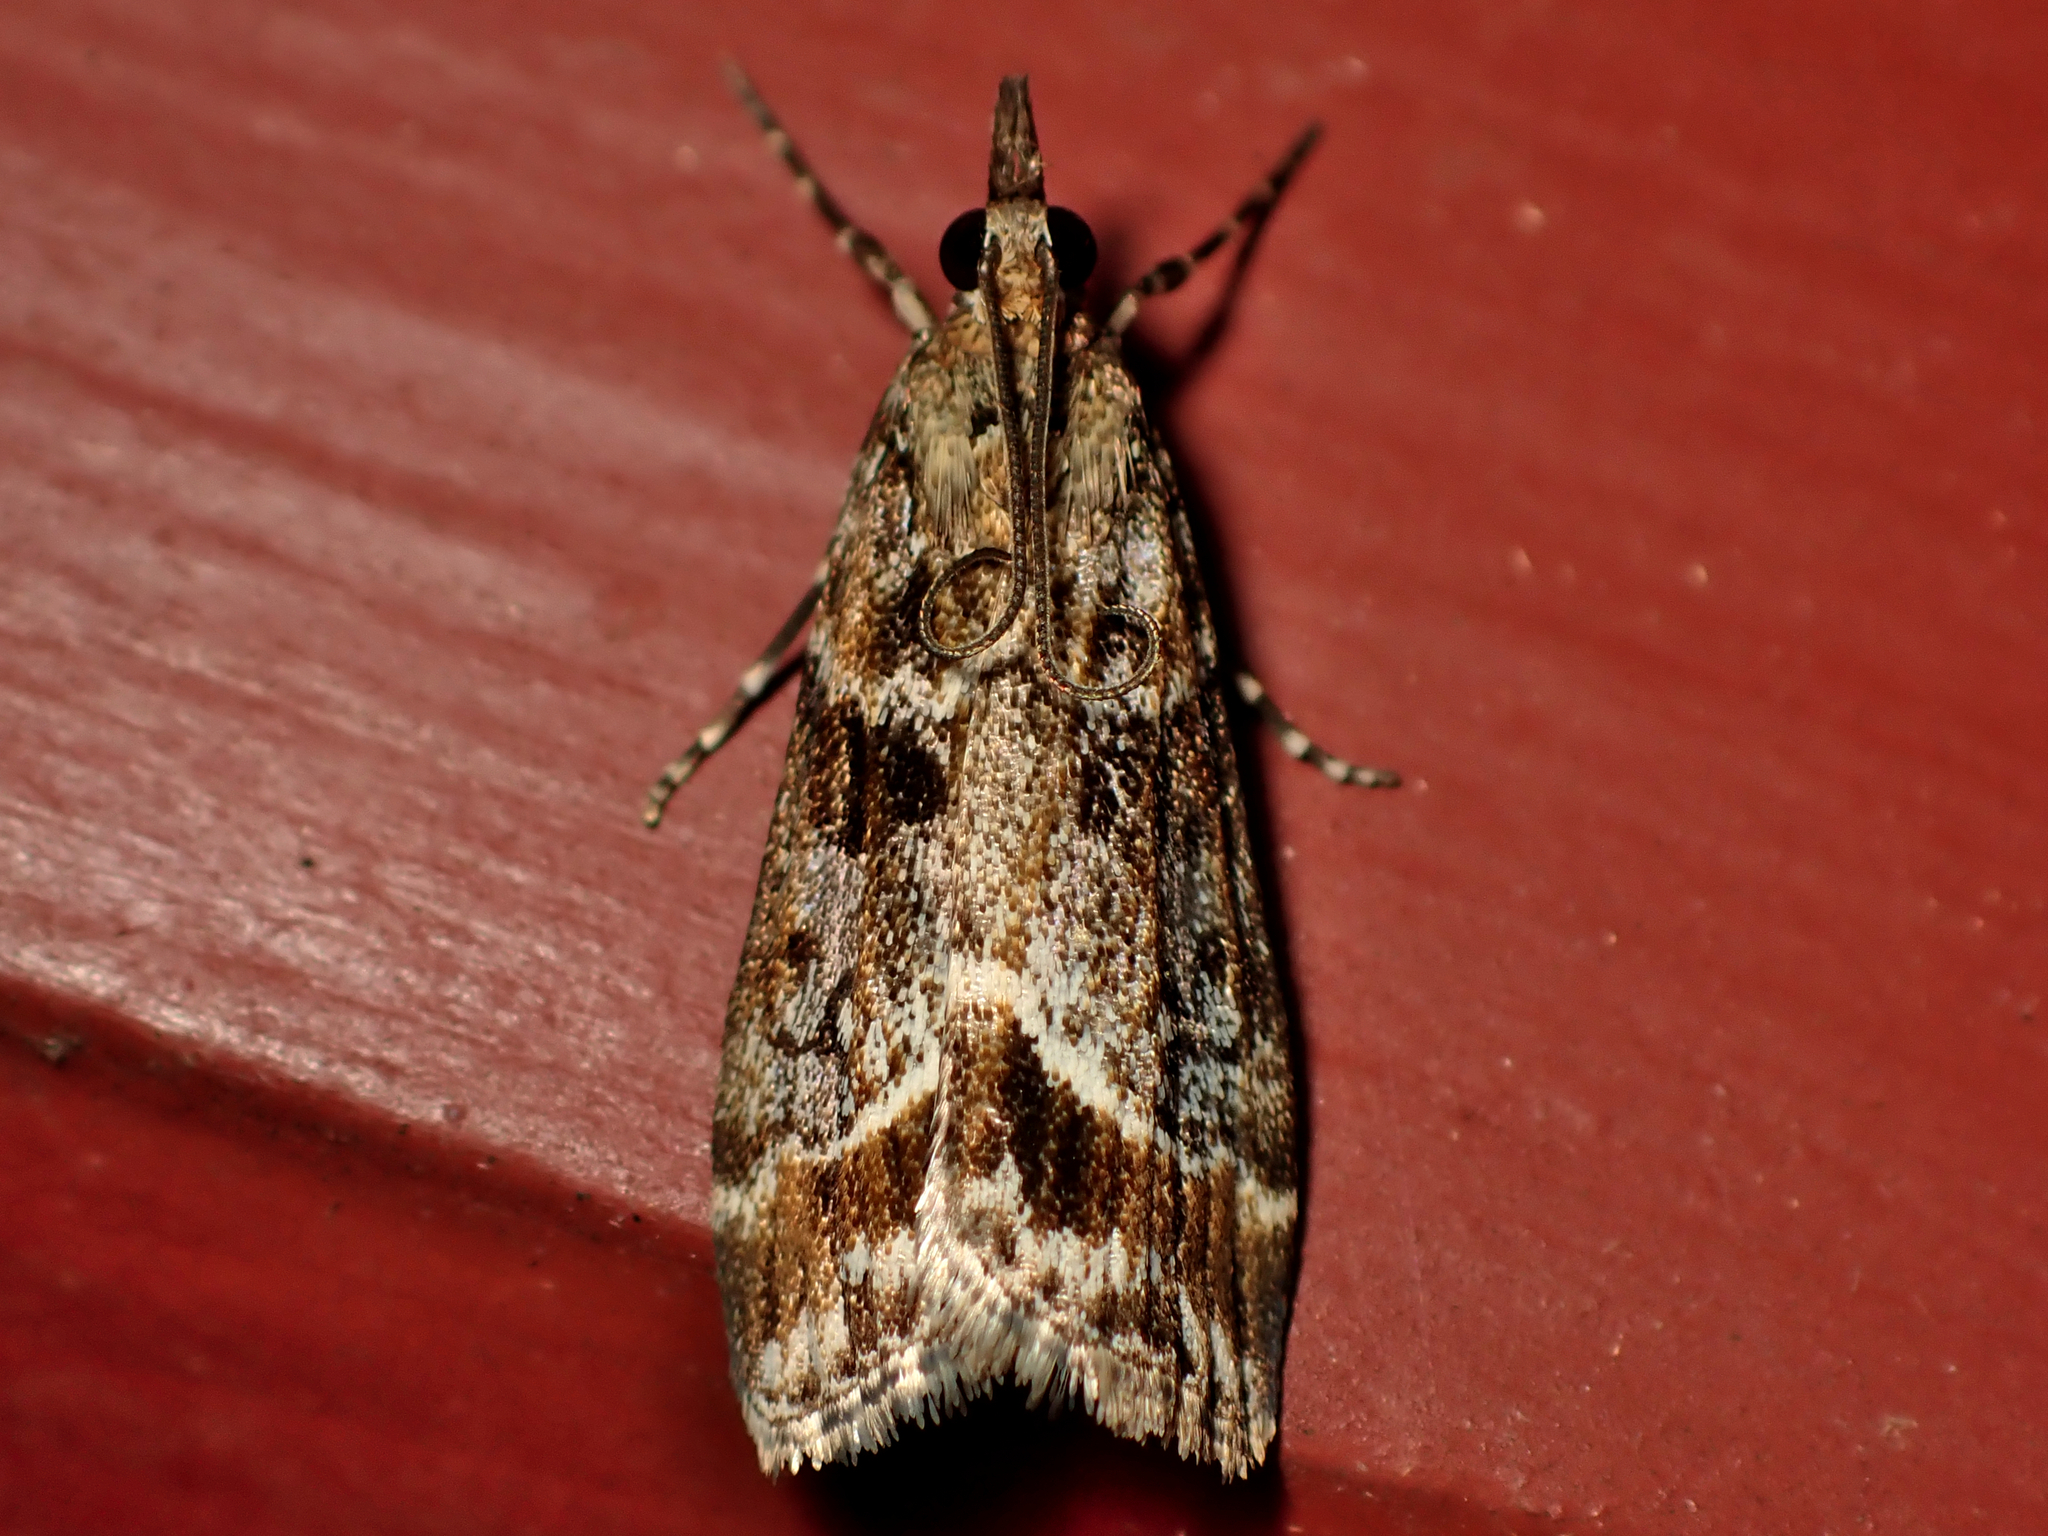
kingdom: Animalia
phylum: Arthropoda
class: Insecta
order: Lepidoptera
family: Crambidae
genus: Eudonia
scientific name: Eudonia legnota
